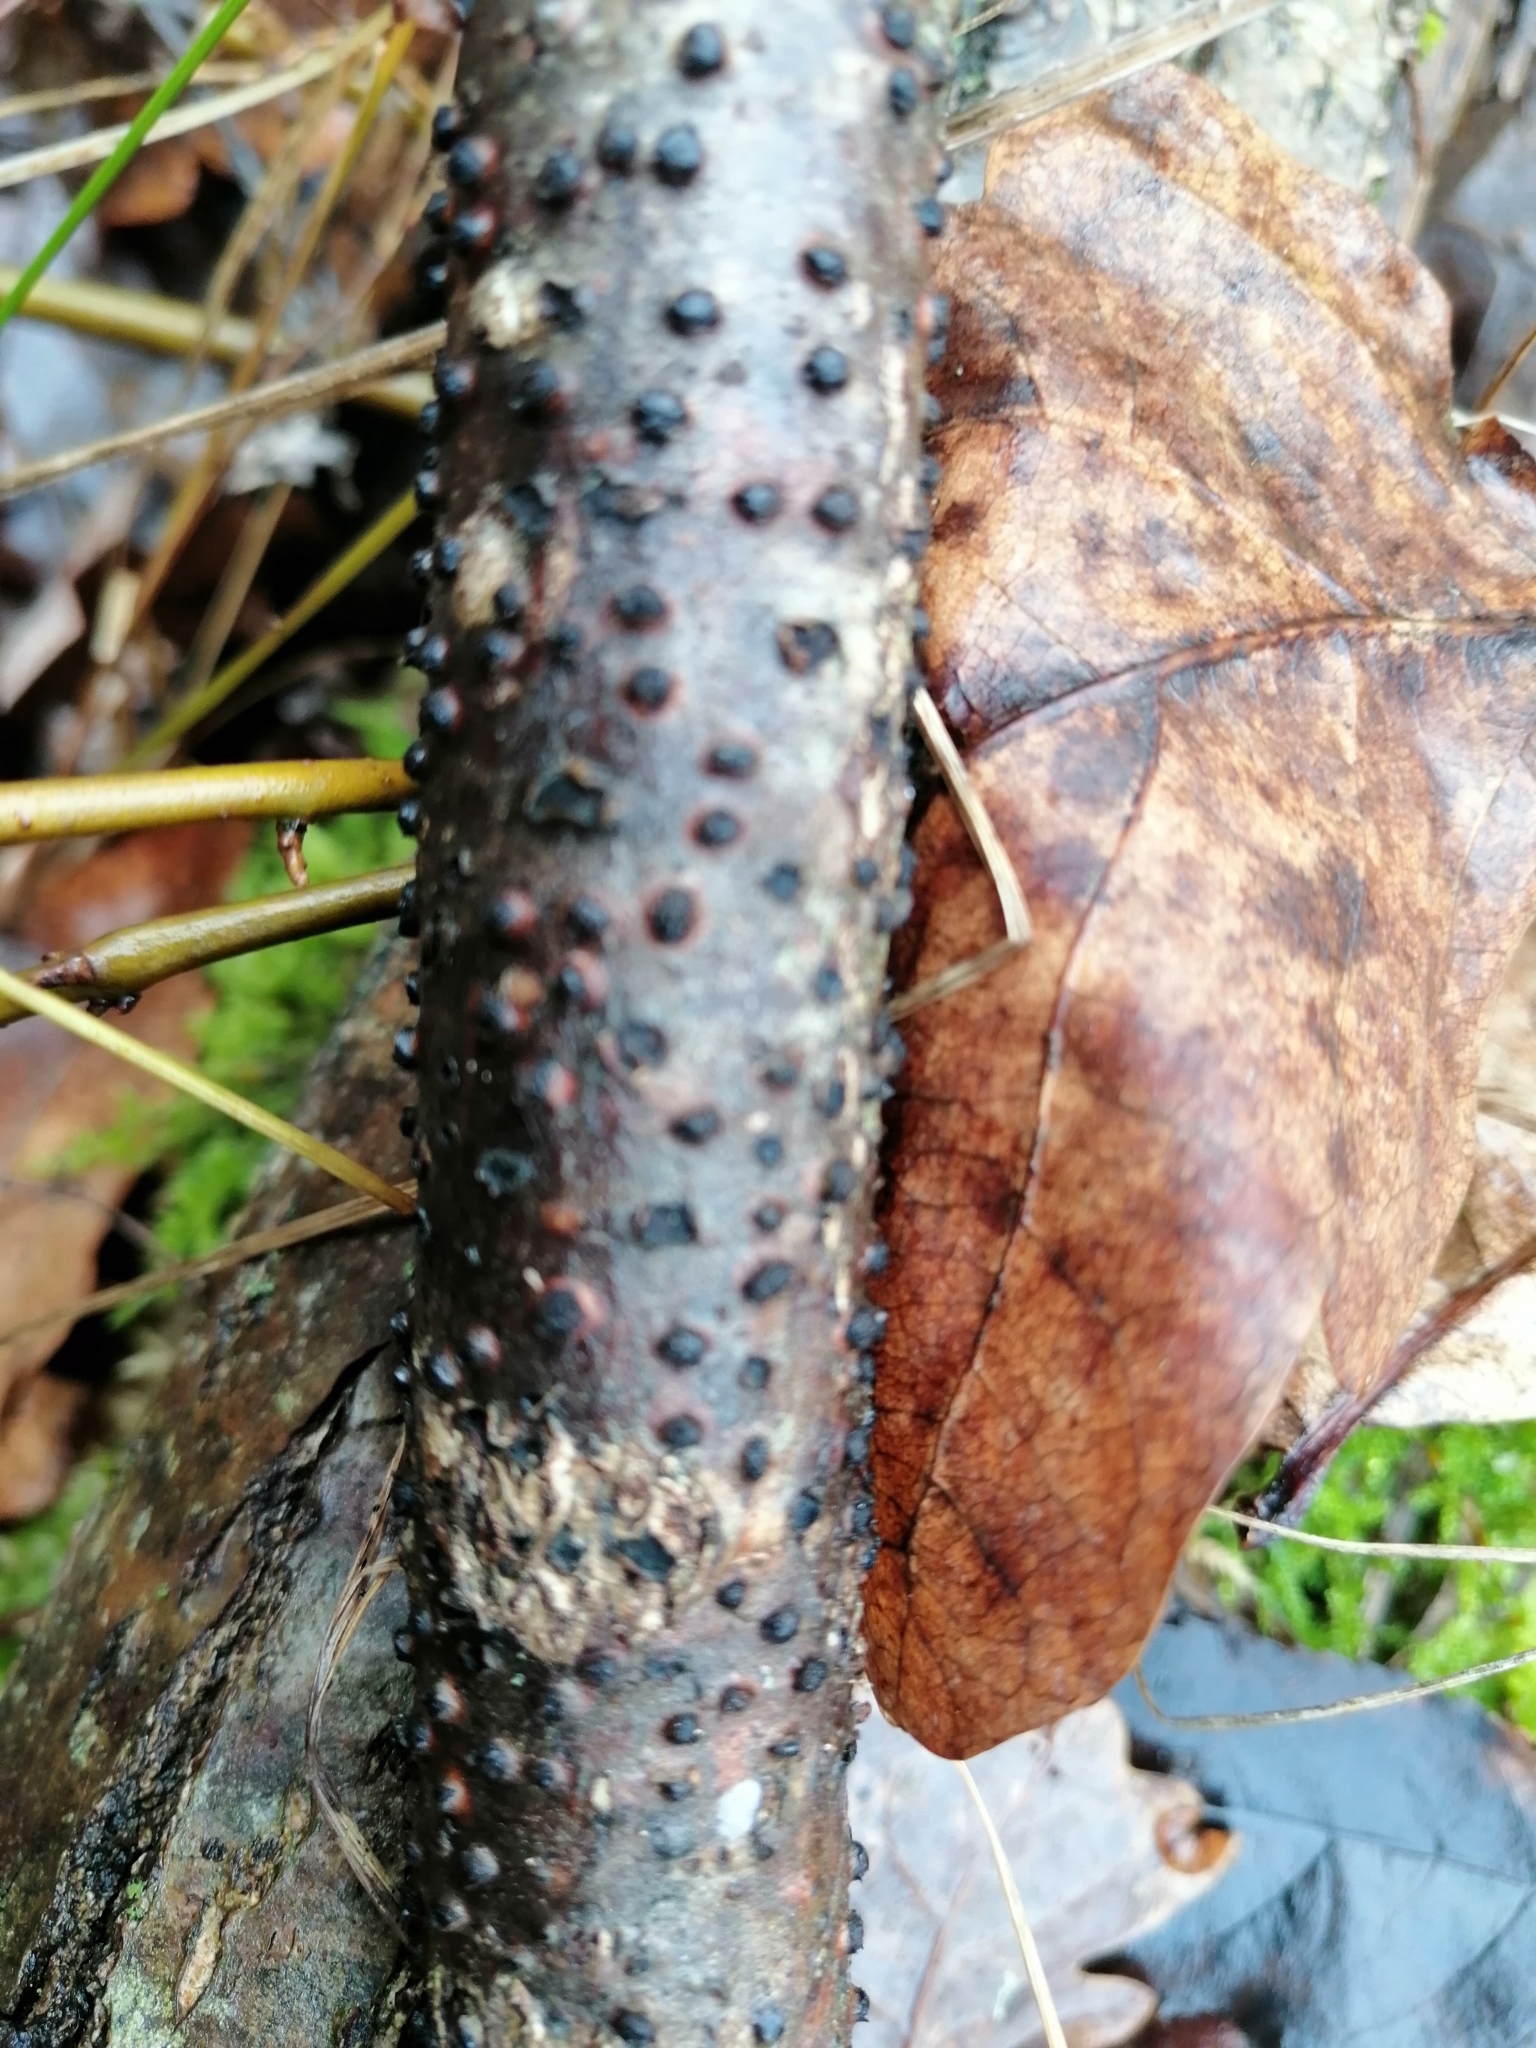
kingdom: Fungi
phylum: Ascomycota
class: Sordariomycetes
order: Xylariales
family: Diatrypaceae
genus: Diatrypella
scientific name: Diatrypella quercina
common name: Oak blackhead
